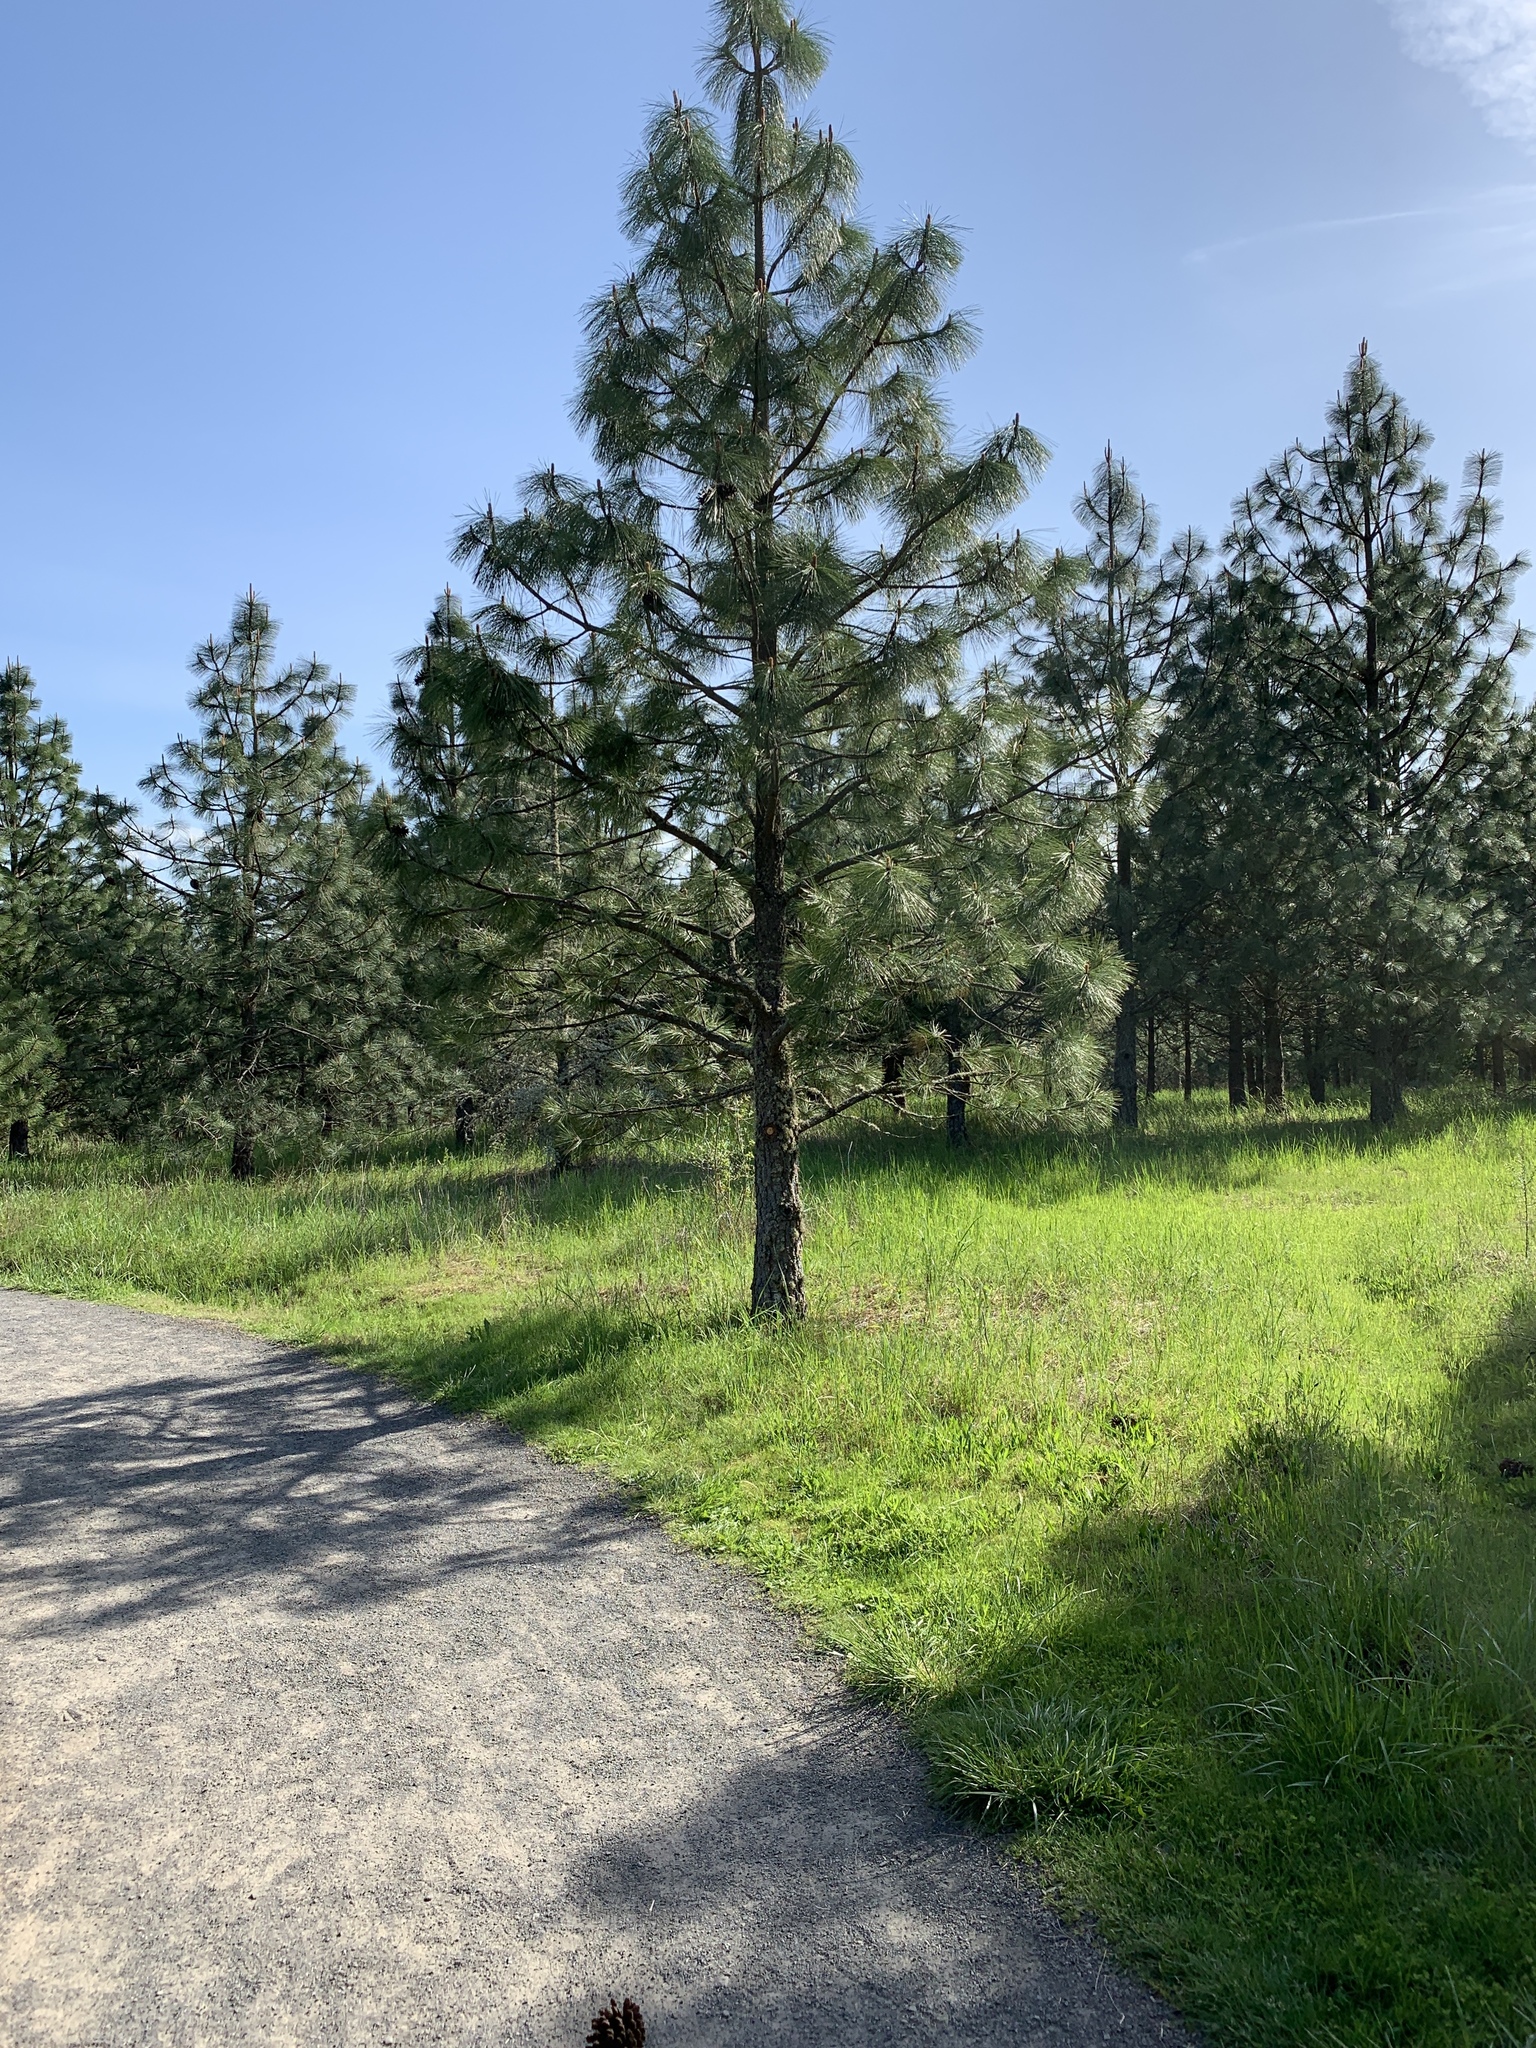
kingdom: Plantae
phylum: Tracheophyta
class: Pinopsida
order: Pinales
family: Pinaceae
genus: Pinus
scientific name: Pinus ponderosa
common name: Western yellow-pine
